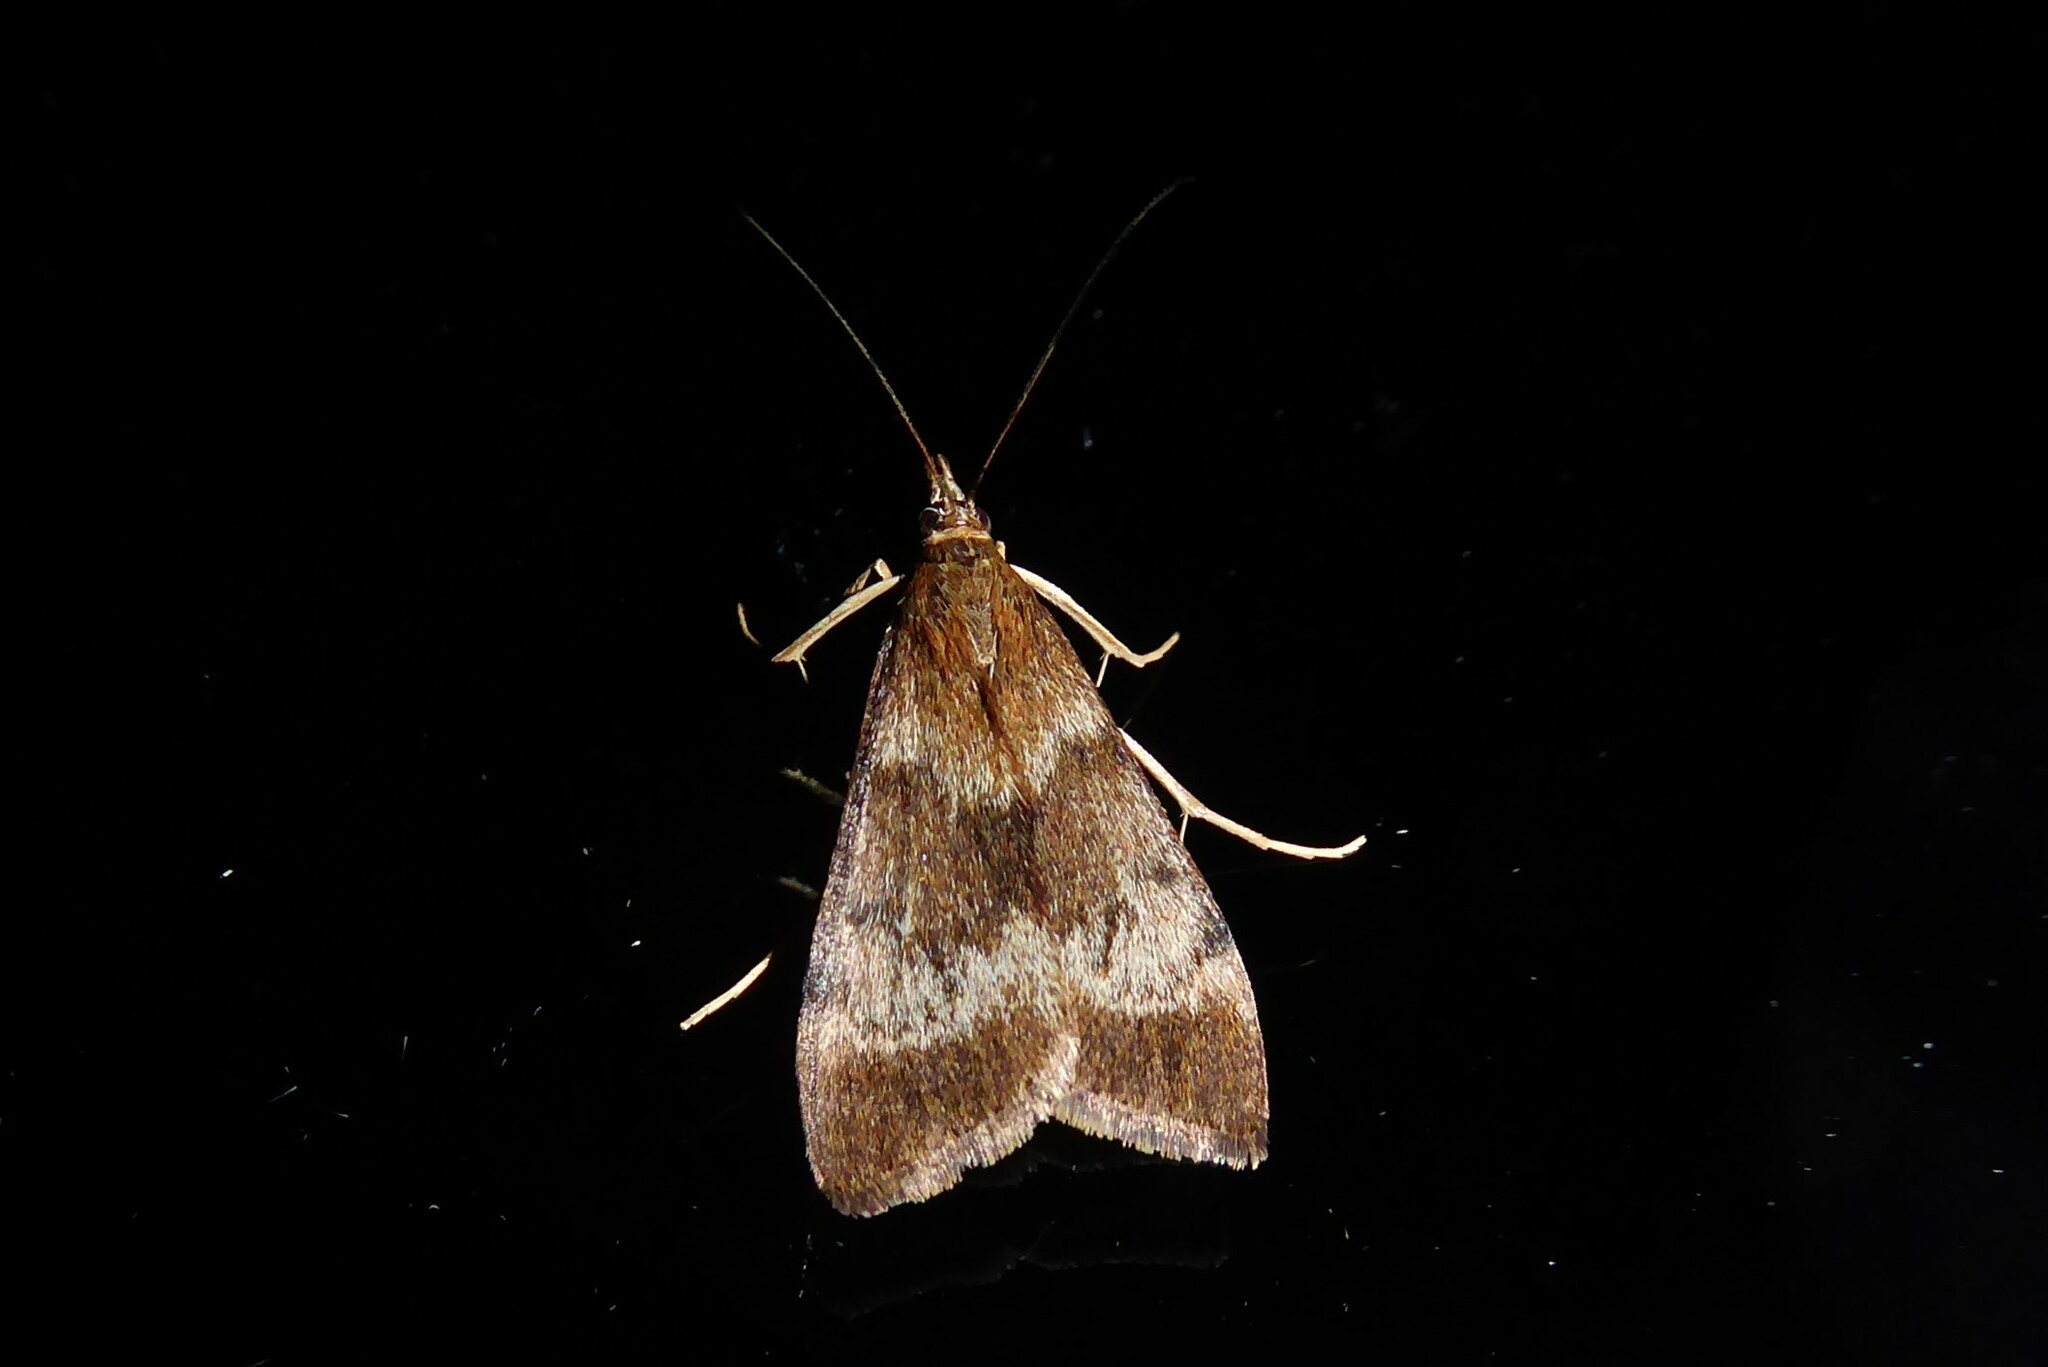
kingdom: Animalia
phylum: Arthropoda
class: Insecta
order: Lepidoptera
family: Crambidae
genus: Uresiphita
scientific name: Uresiphita
